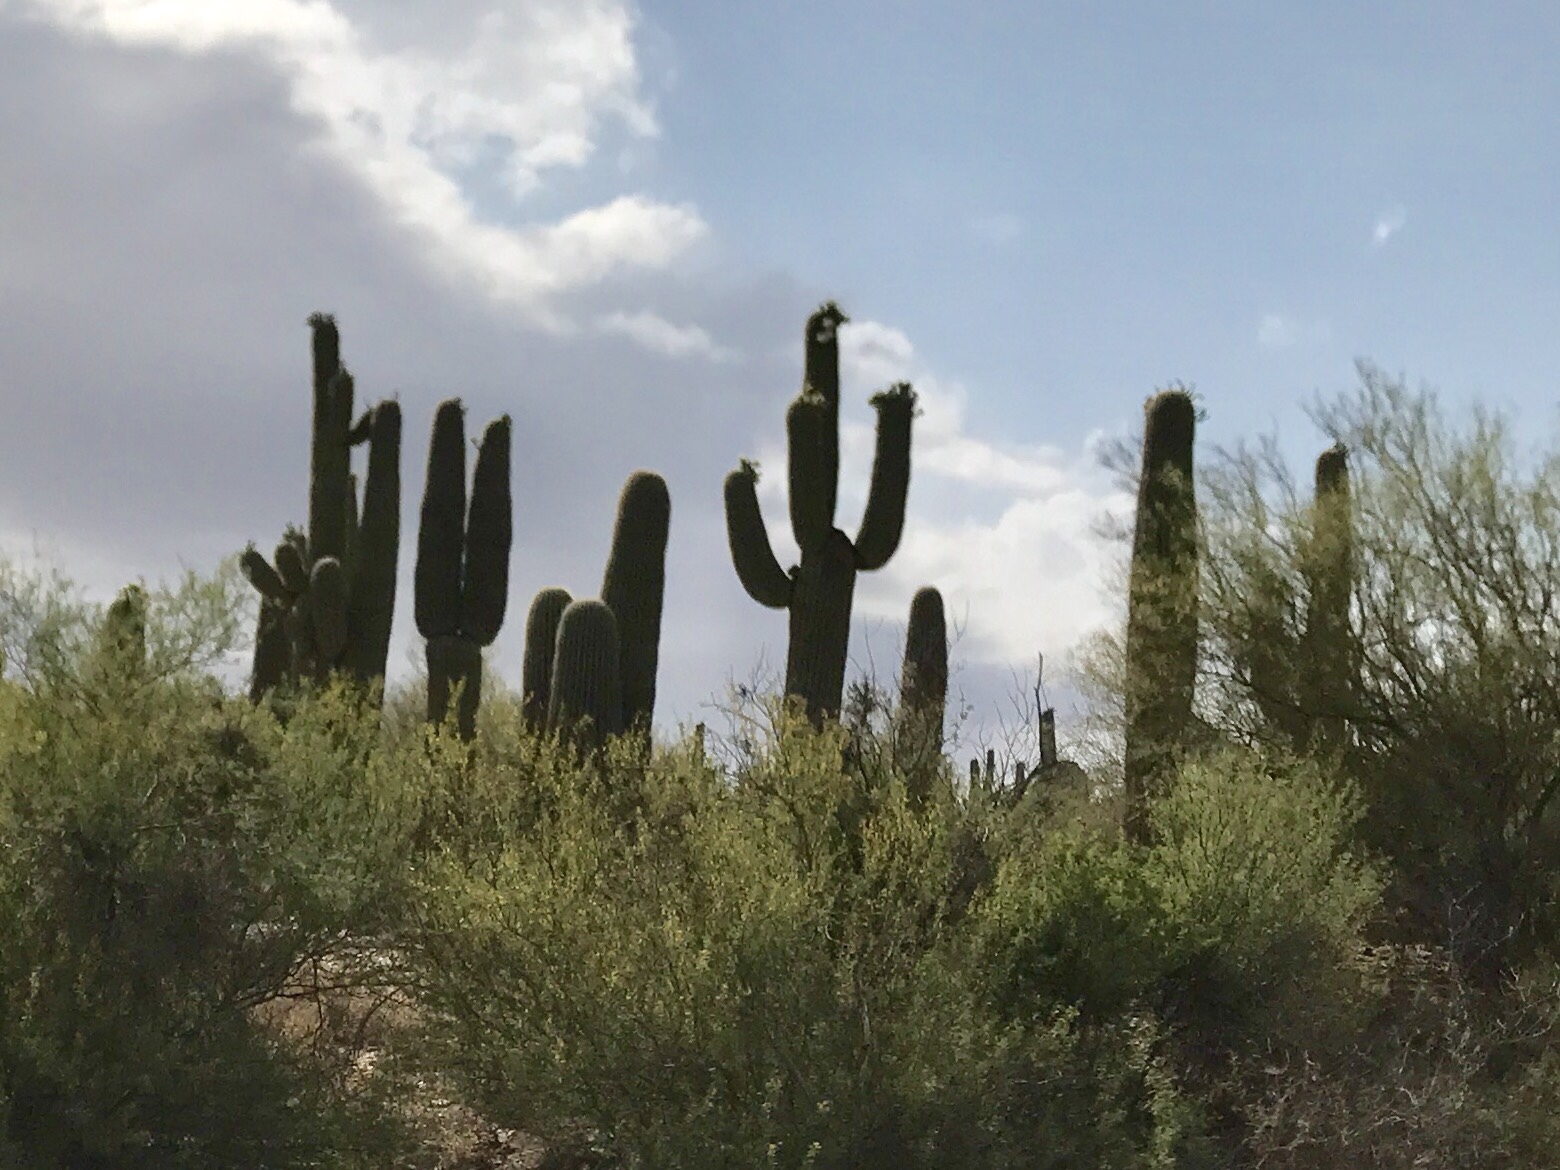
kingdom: Plantae
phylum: Tracheophyta
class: Magnoliopsida
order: Caryophyllales
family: Cactaceae
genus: Carnegiea
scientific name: Carnegiea gigantea
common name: Saguaro
